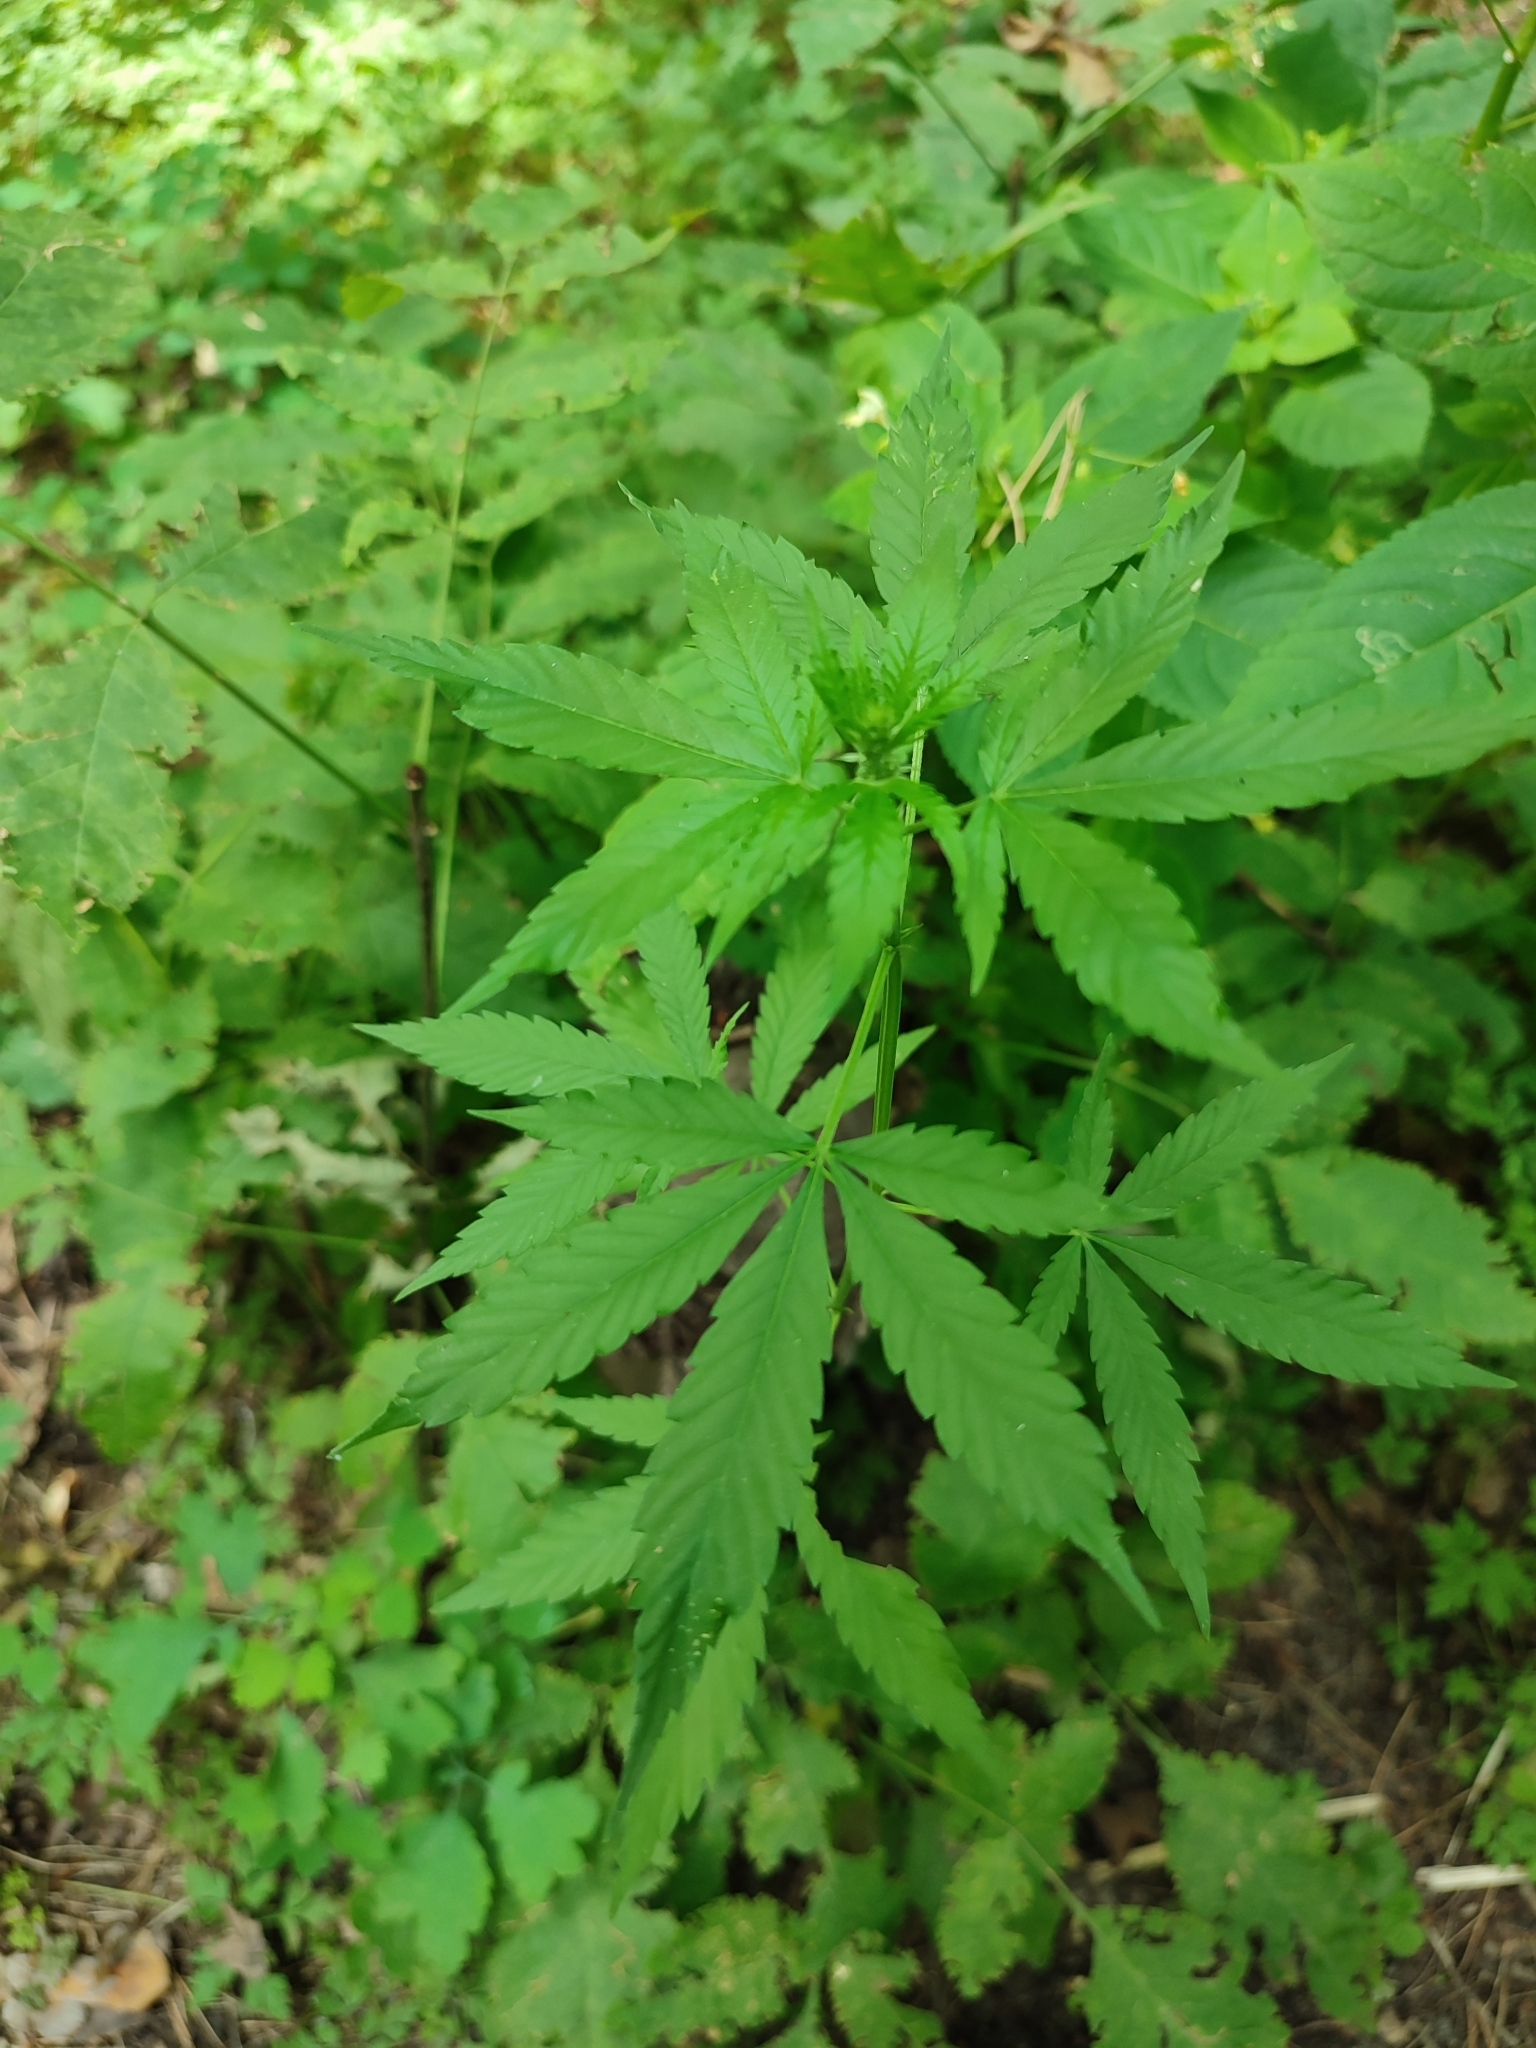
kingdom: Plantae
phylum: Tracheophyta
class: Magnoliopsida
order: Rosales
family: Cannabaceae
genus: Cannabis
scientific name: Cannabis sativa
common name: Hemp
